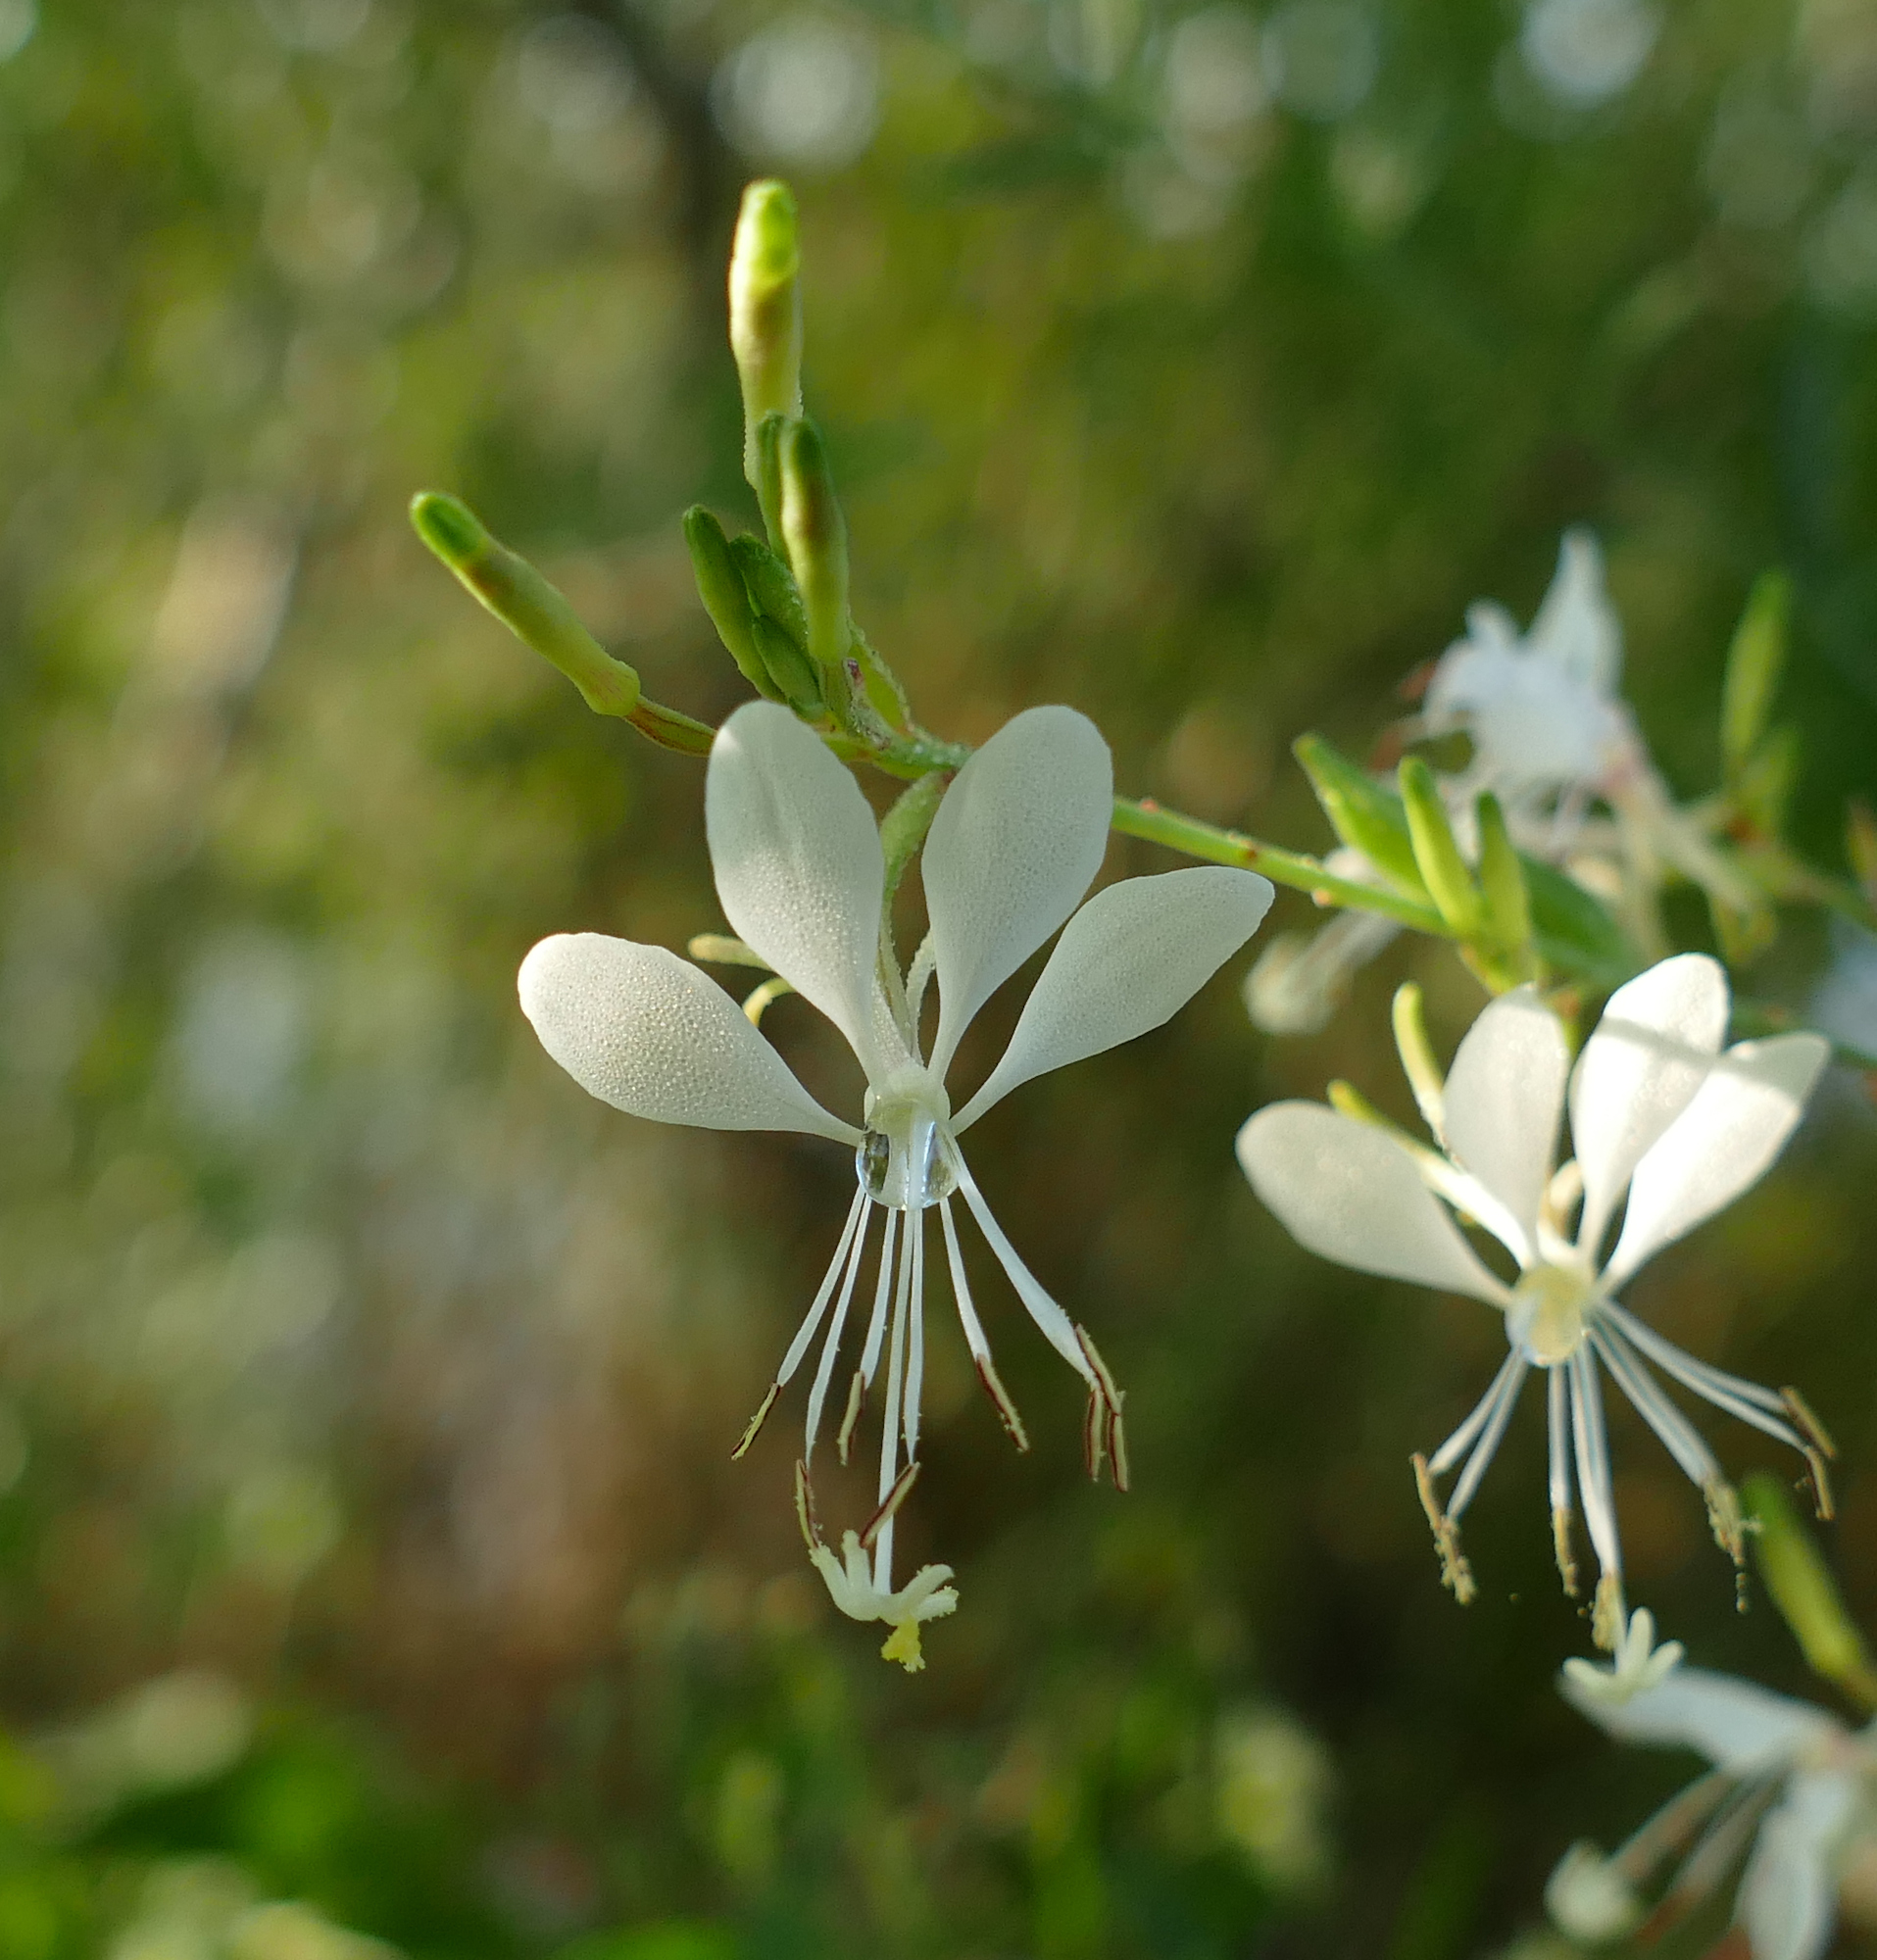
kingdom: Plantae
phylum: Tracheophyta
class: Magnoliopsida
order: Myrtales
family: Onagraceae
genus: Oenothera
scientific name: Oenothera lindheimeri
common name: Lindheimer's beeblossom
